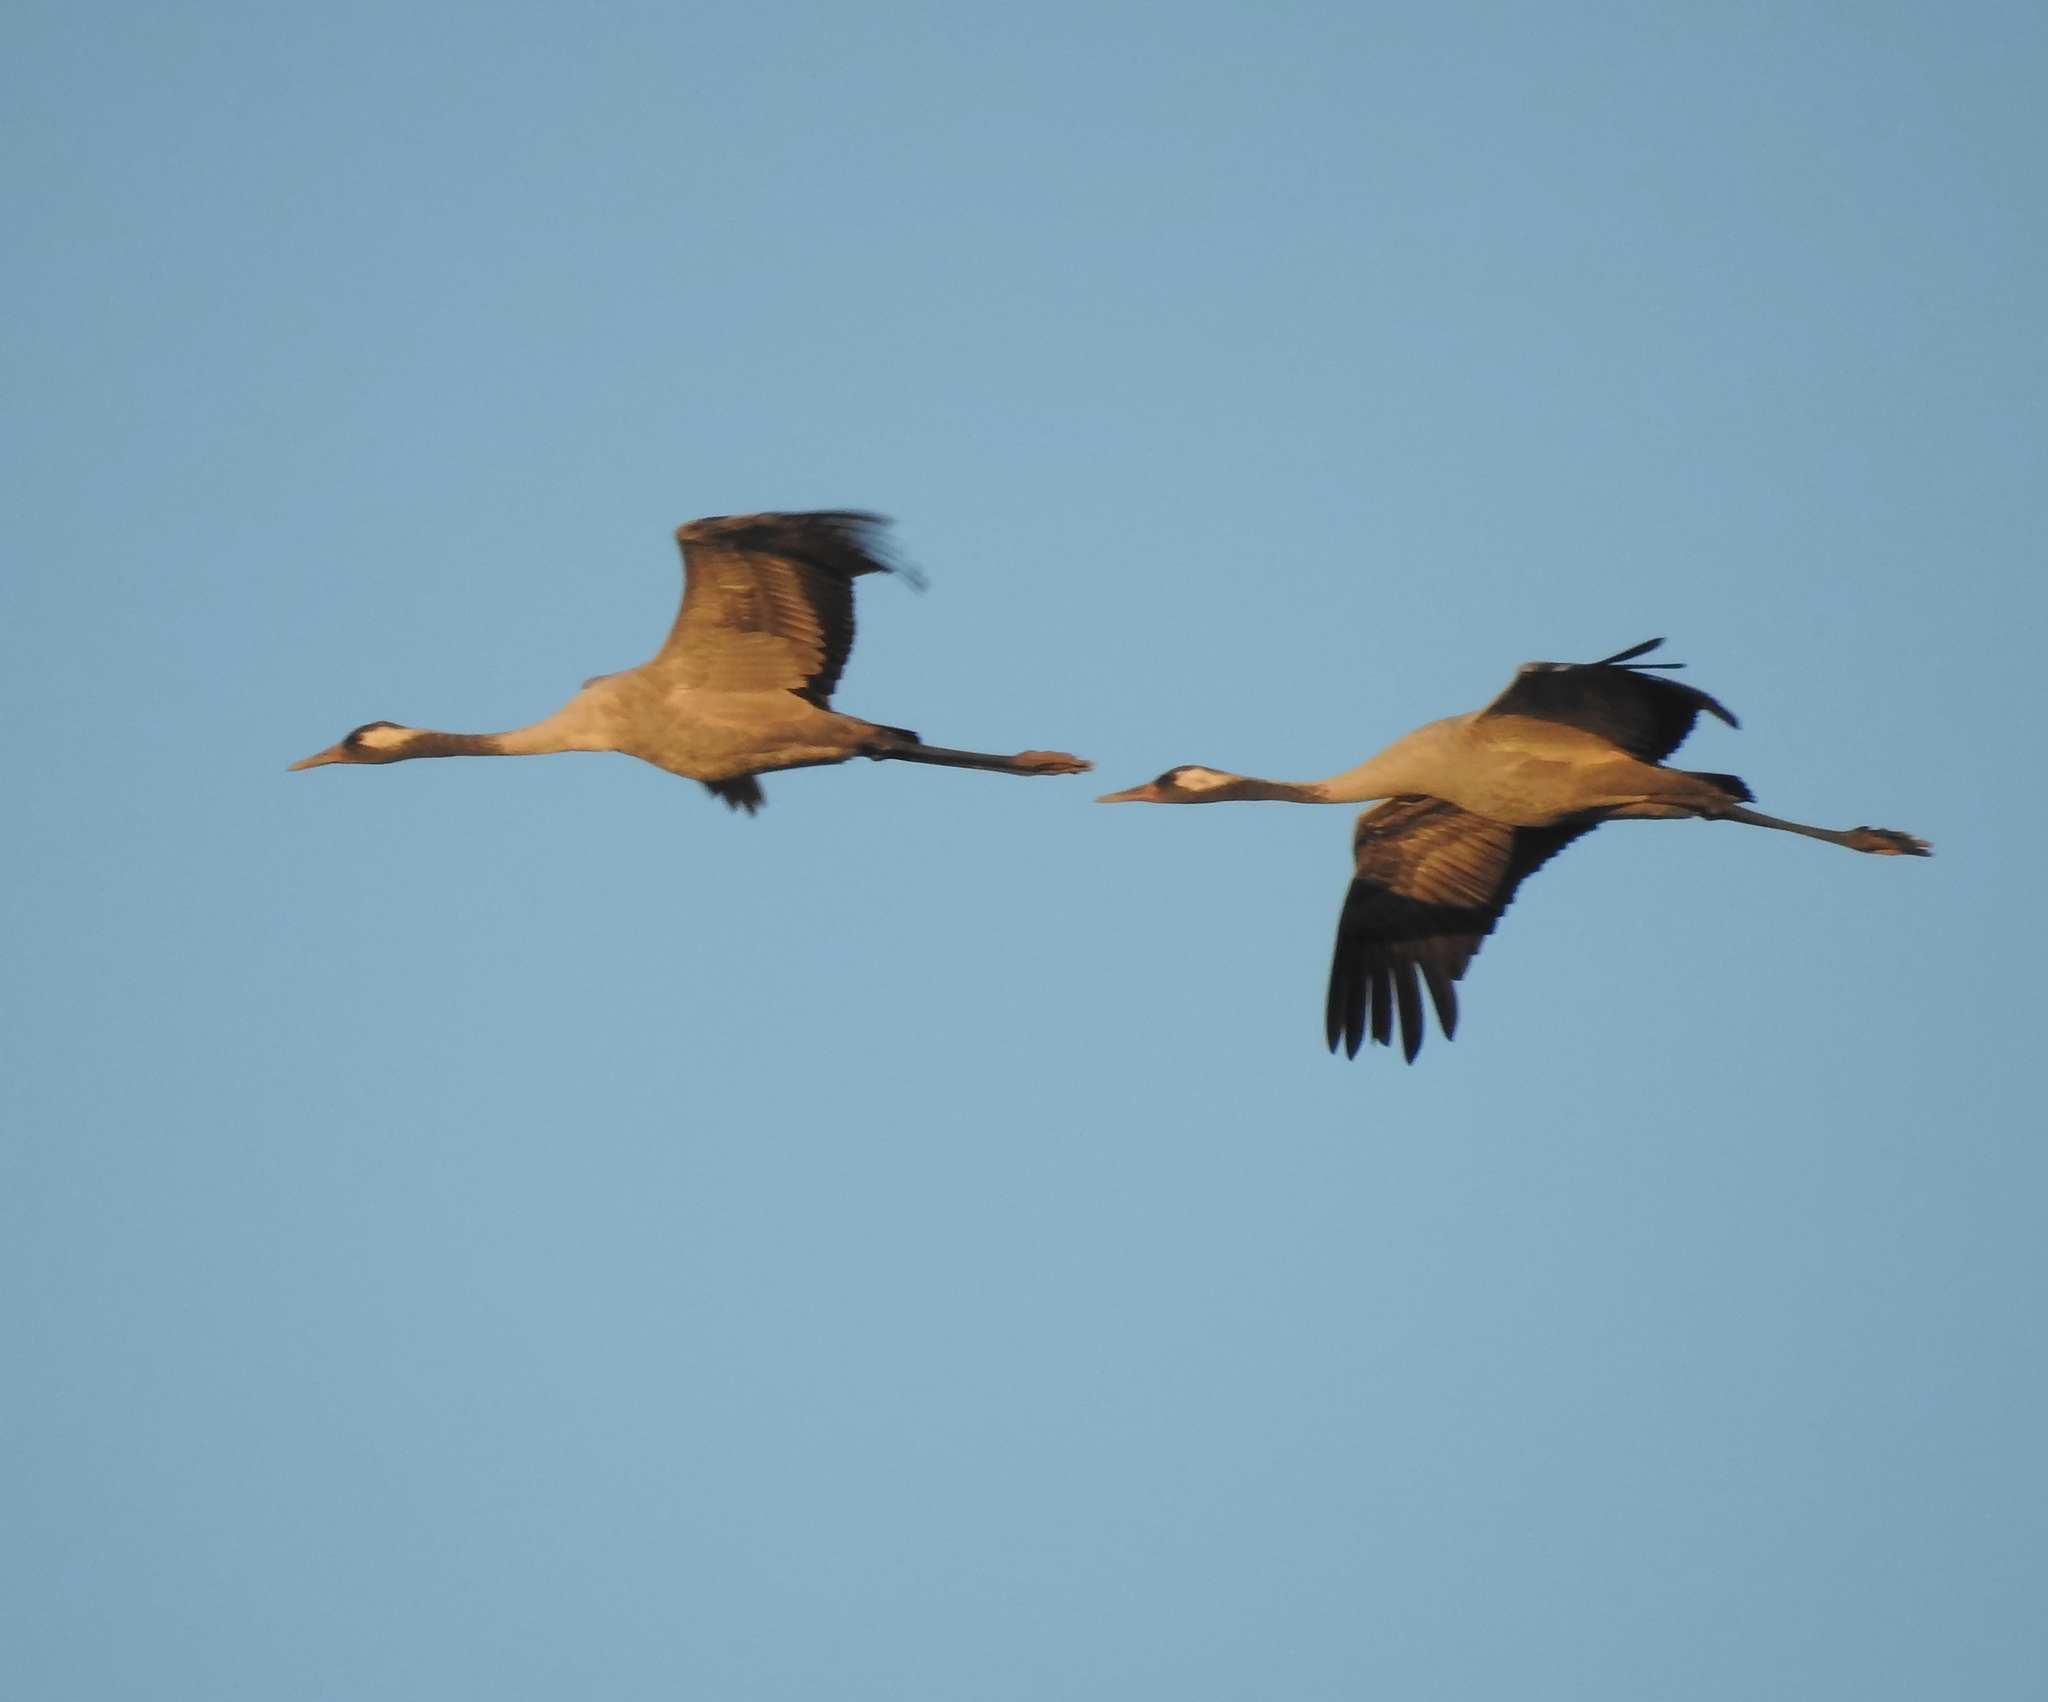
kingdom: Animalia
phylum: Chordata
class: Aves
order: Gruiformes
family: Gruidae
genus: Grus
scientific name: Grus grus
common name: Common crane
